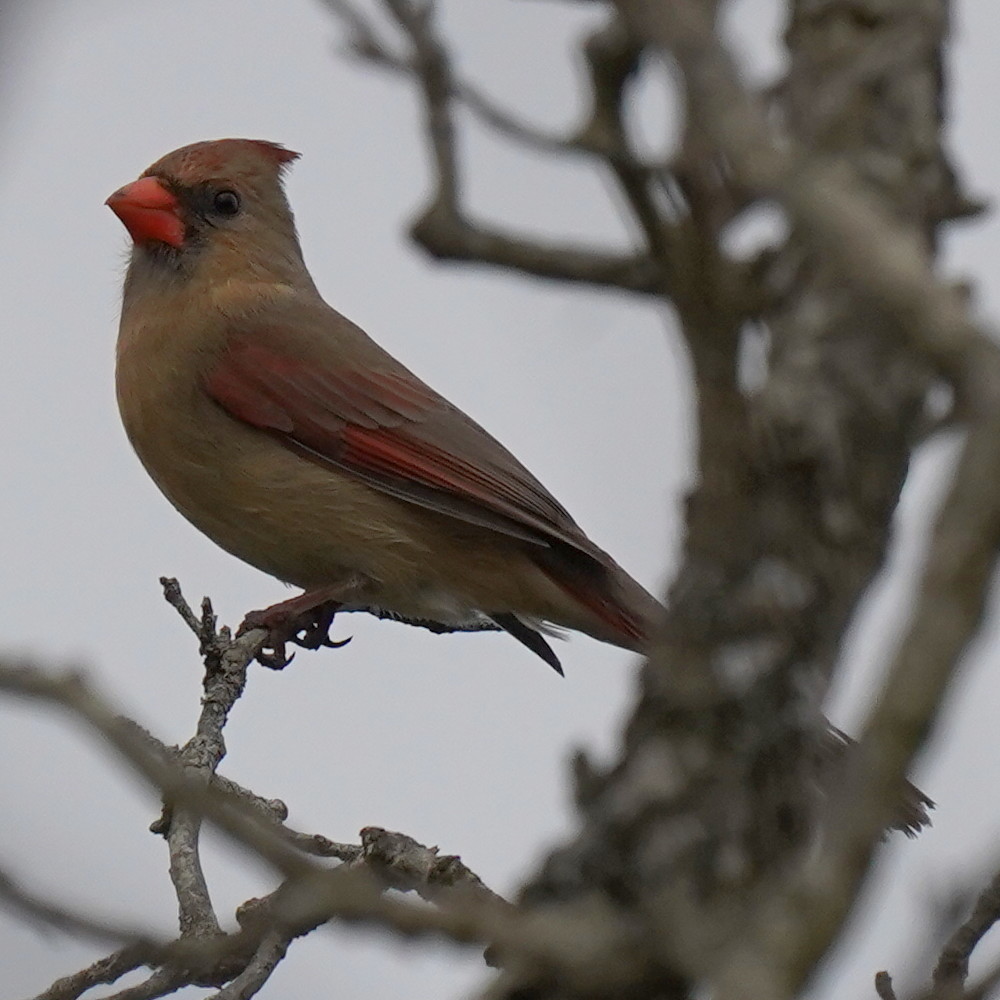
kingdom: Animalia
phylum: Chordata
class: Aves
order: Passeriformes
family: Cardinalidae
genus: Cardinalis
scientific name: Cardinalis cardinalis
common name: Northern cardinal
